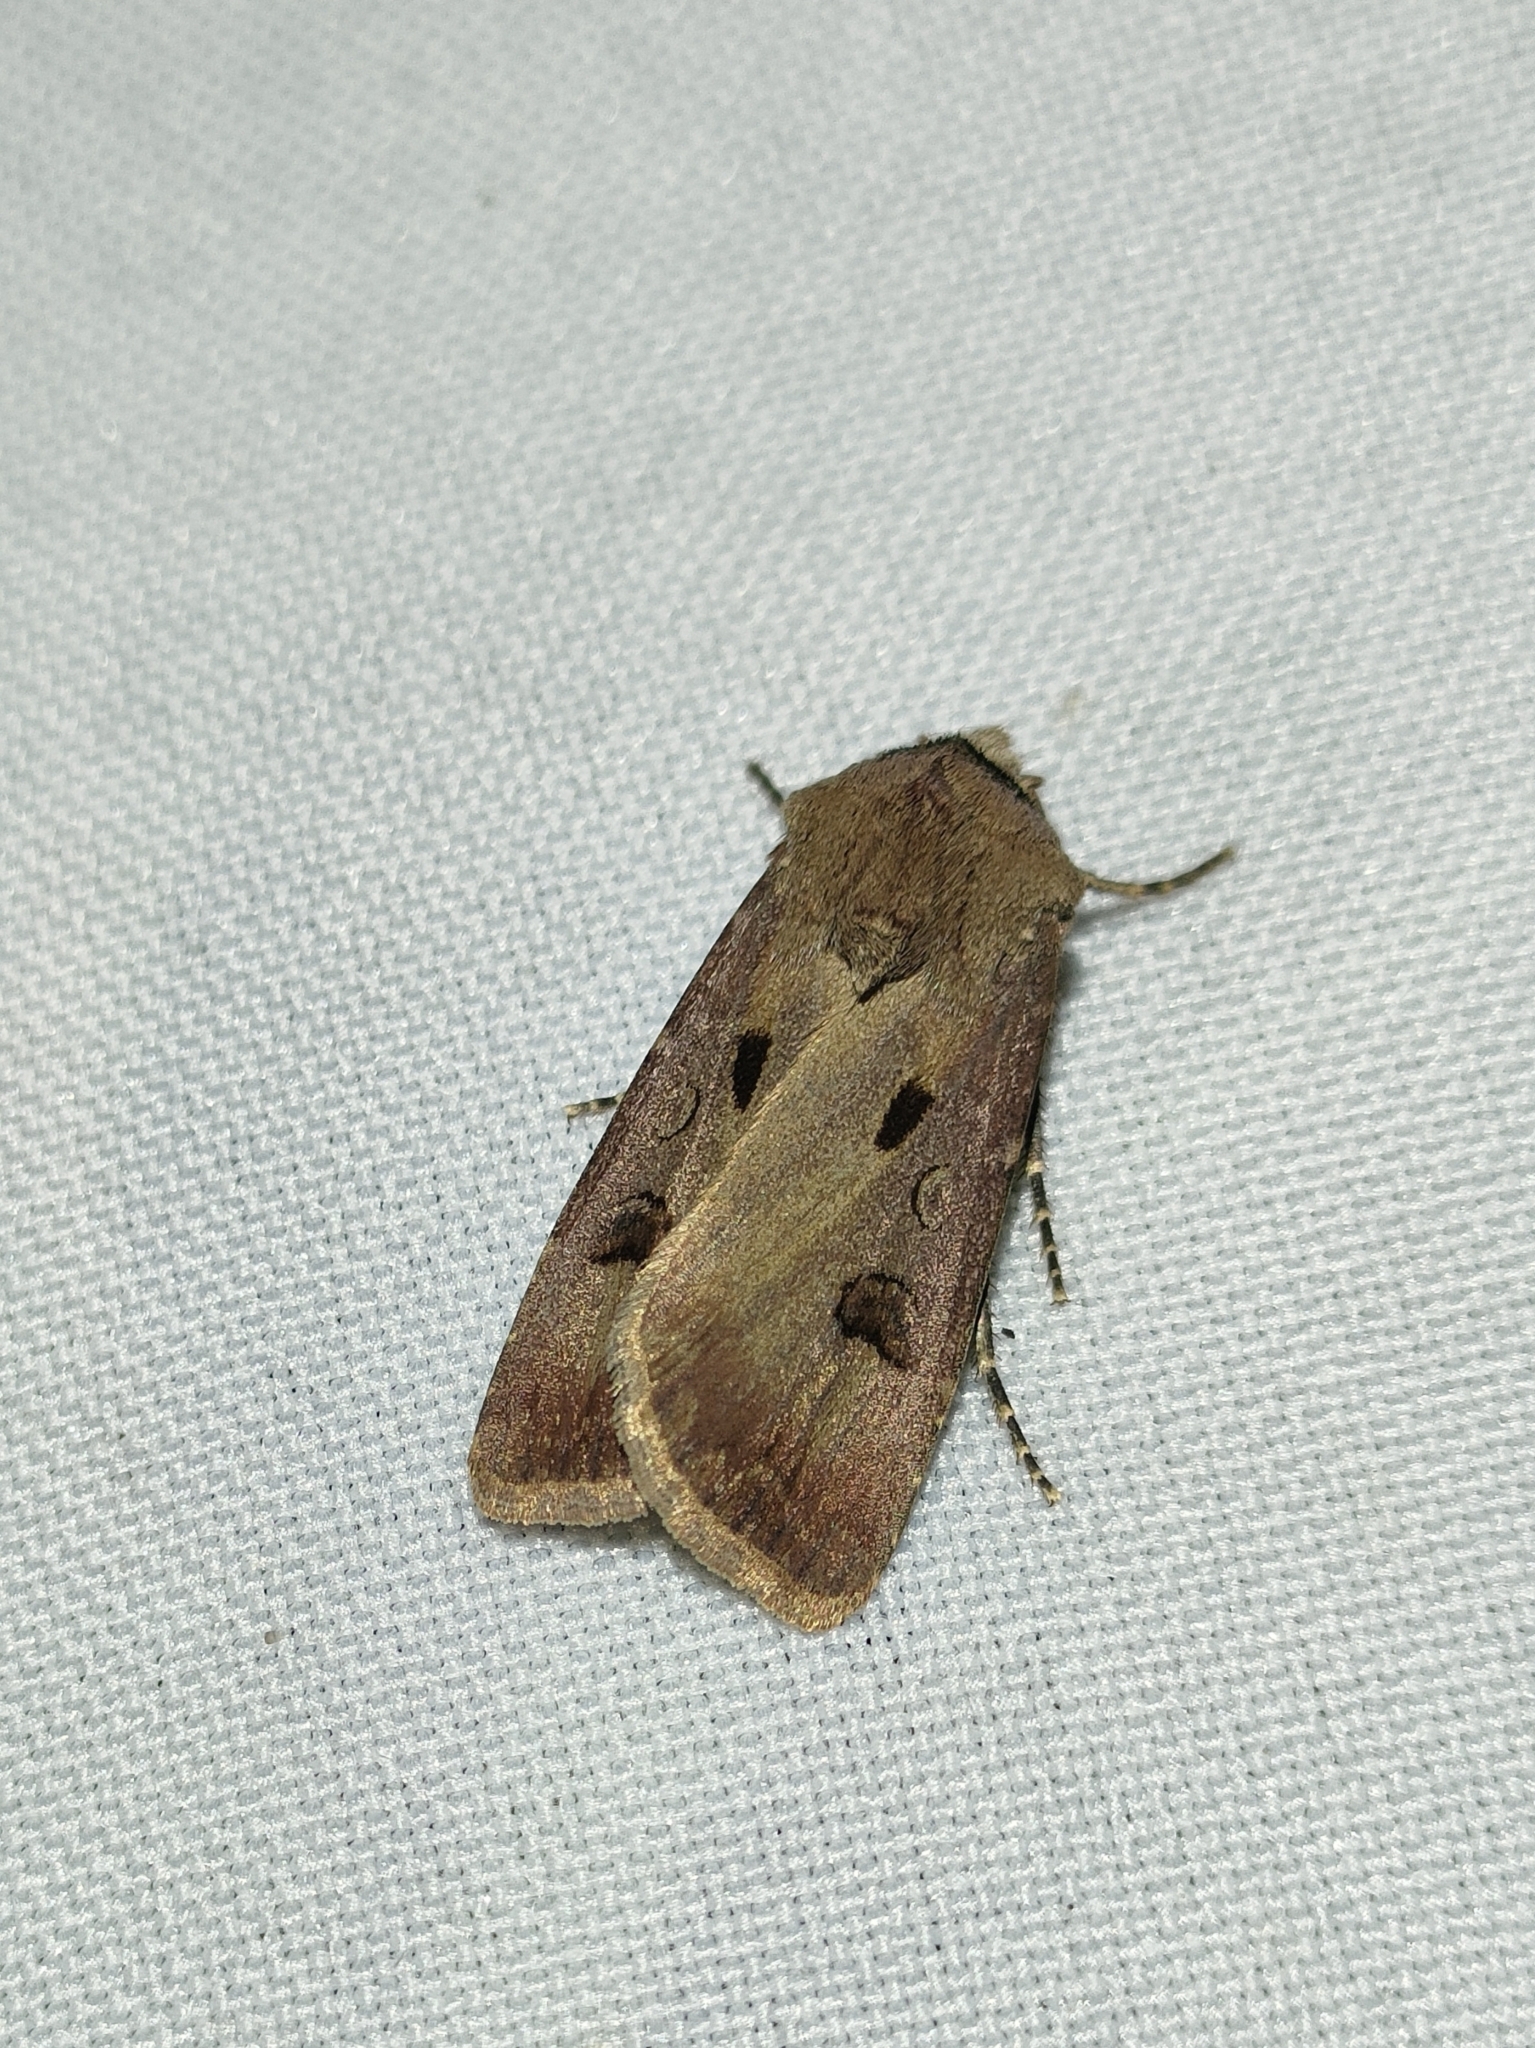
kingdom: Animalia
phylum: Arthropoda
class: Insecta
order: Lepidoptera
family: Noctuidae
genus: Agrotis
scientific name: Agrotis exclamationis
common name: Heart and dart
